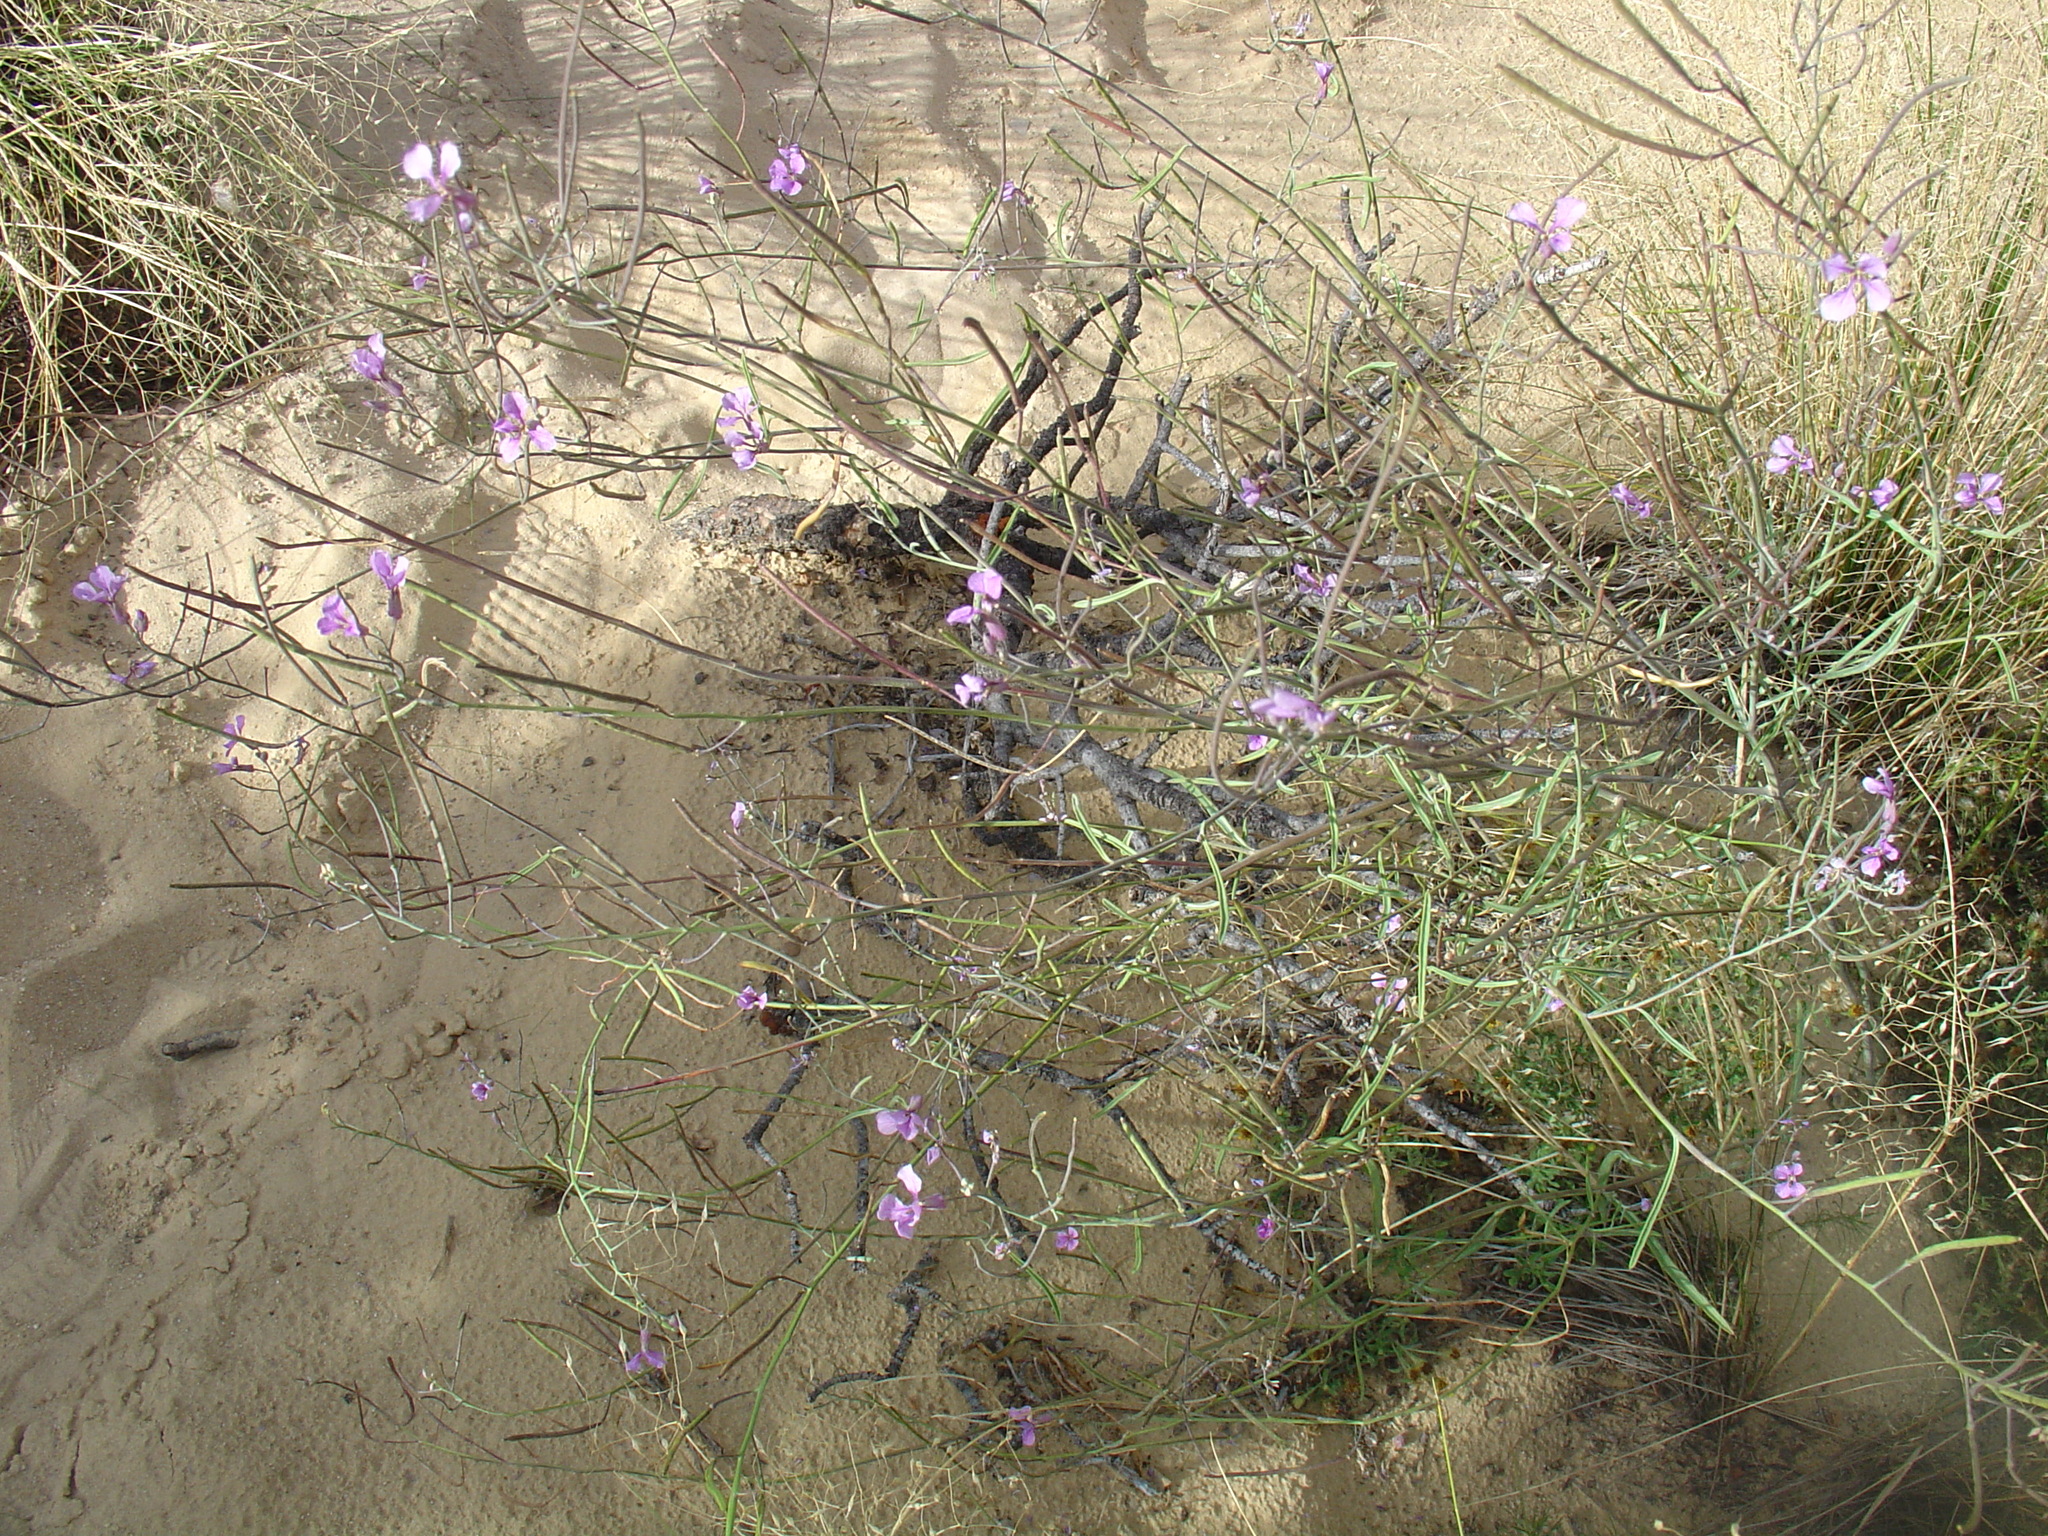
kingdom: Plantae
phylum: Tracheophyta
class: Magnoliopsida
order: Brassicales
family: Brassicaceae
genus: Hesperidanthus
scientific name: Hesperidanthus linearifolius
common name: Slim-leaf plains mustard
